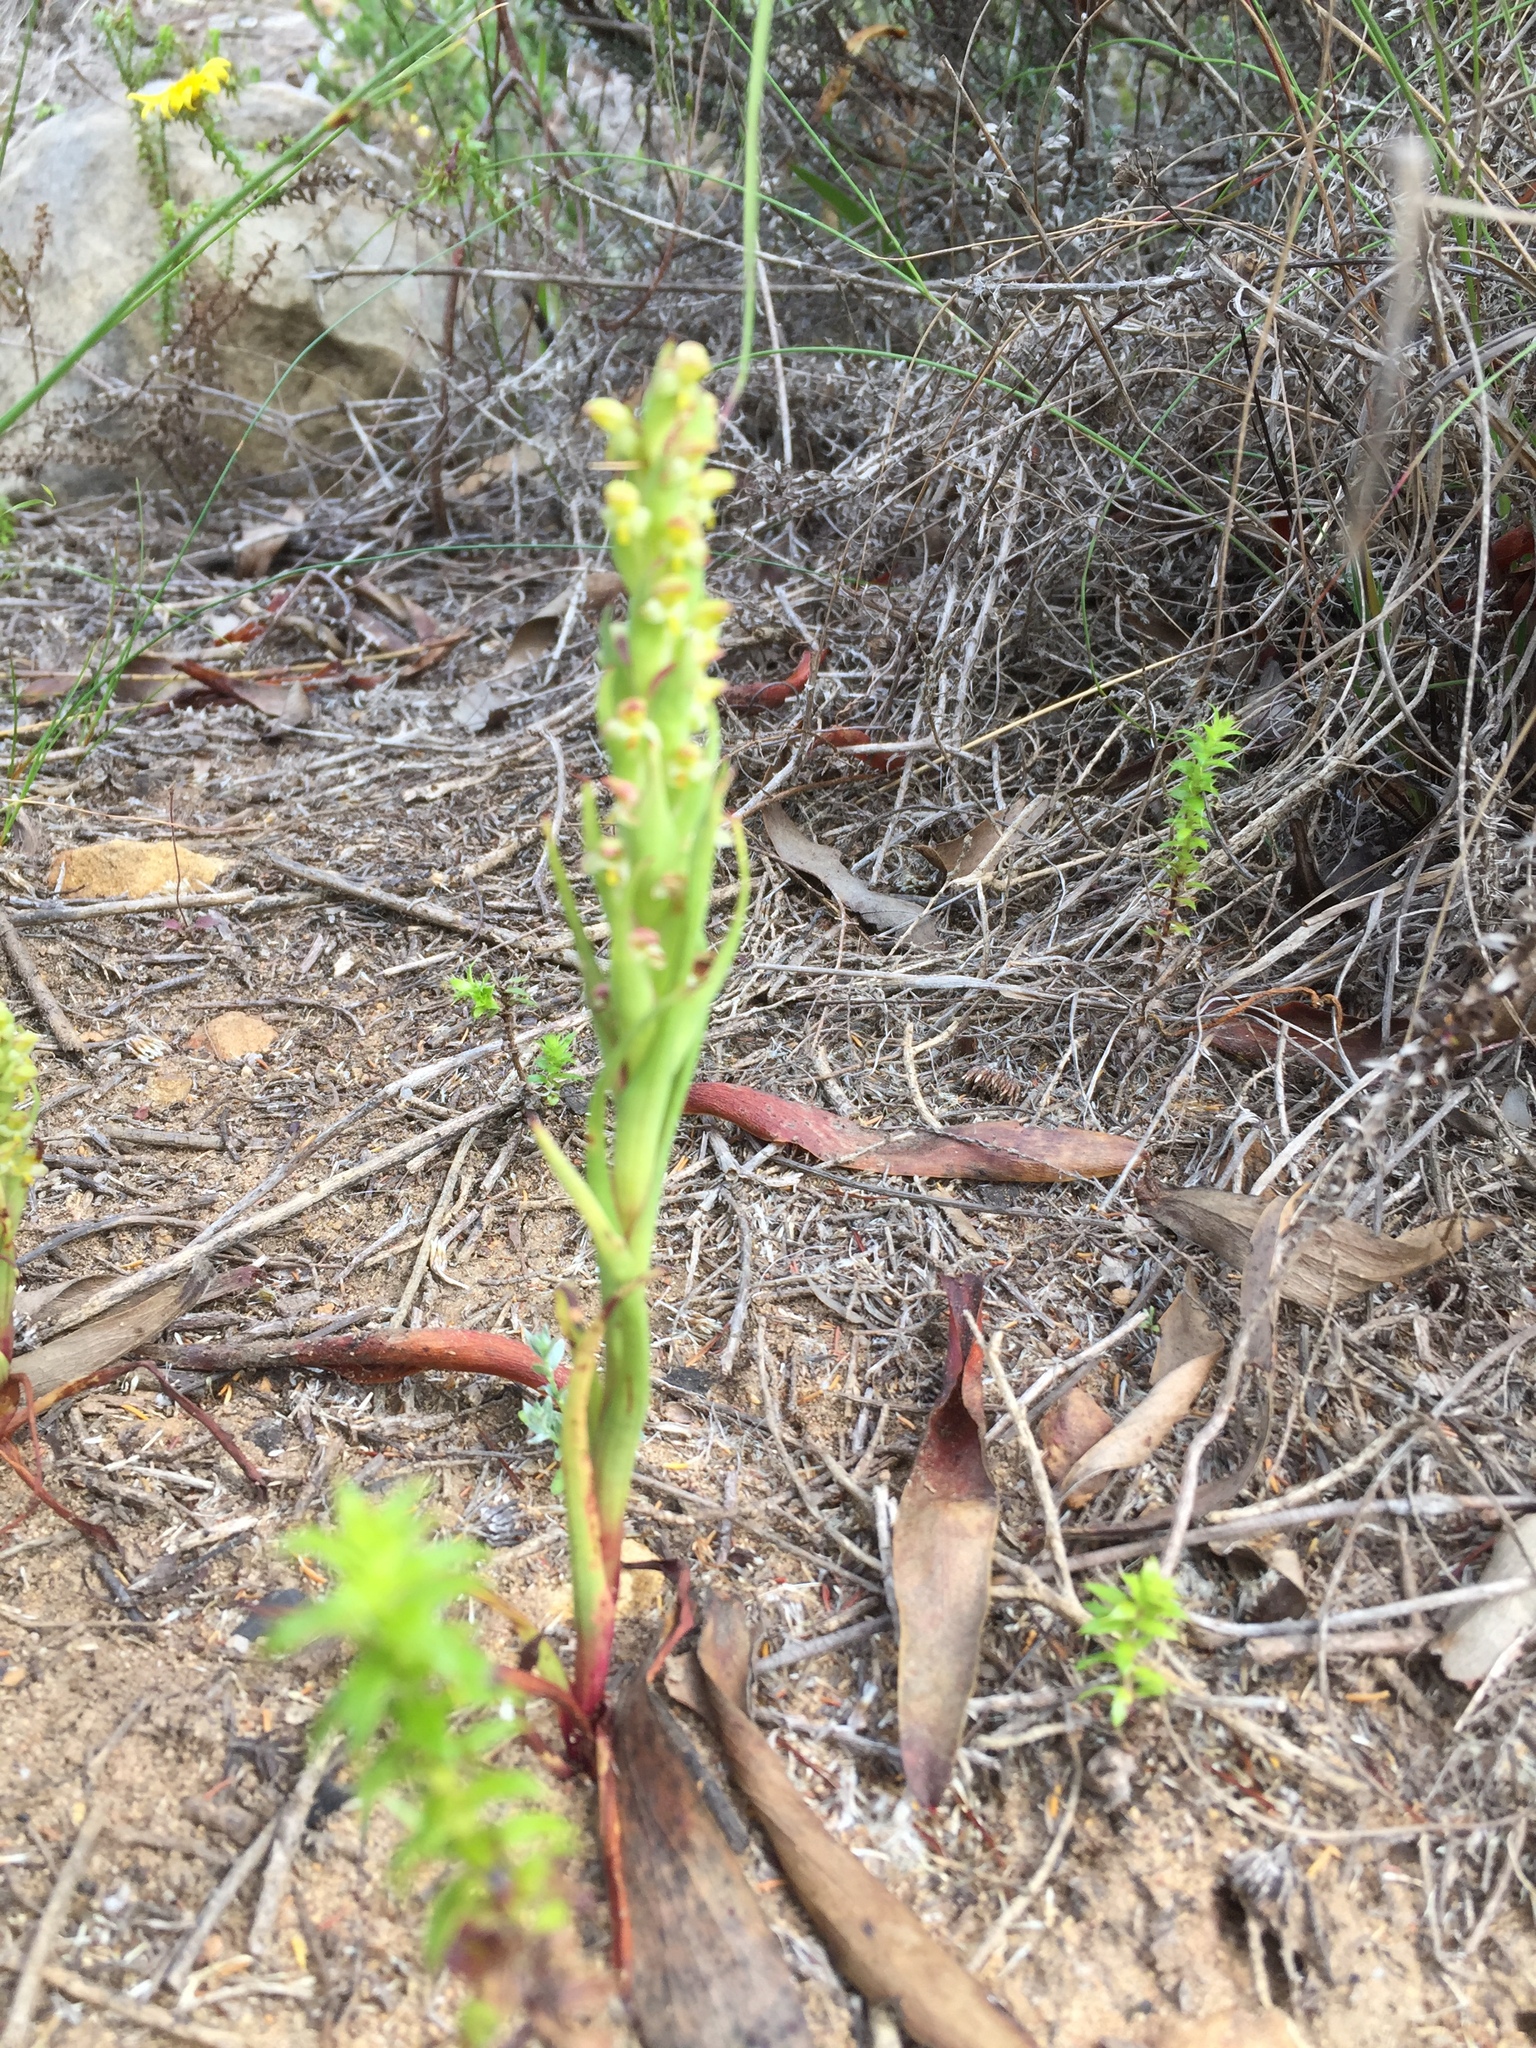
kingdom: Plantae
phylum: Tracheophyta
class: Liliopsida
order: Asparagales
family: Orchidaceae
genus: Disa
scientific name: Disa bracteata
